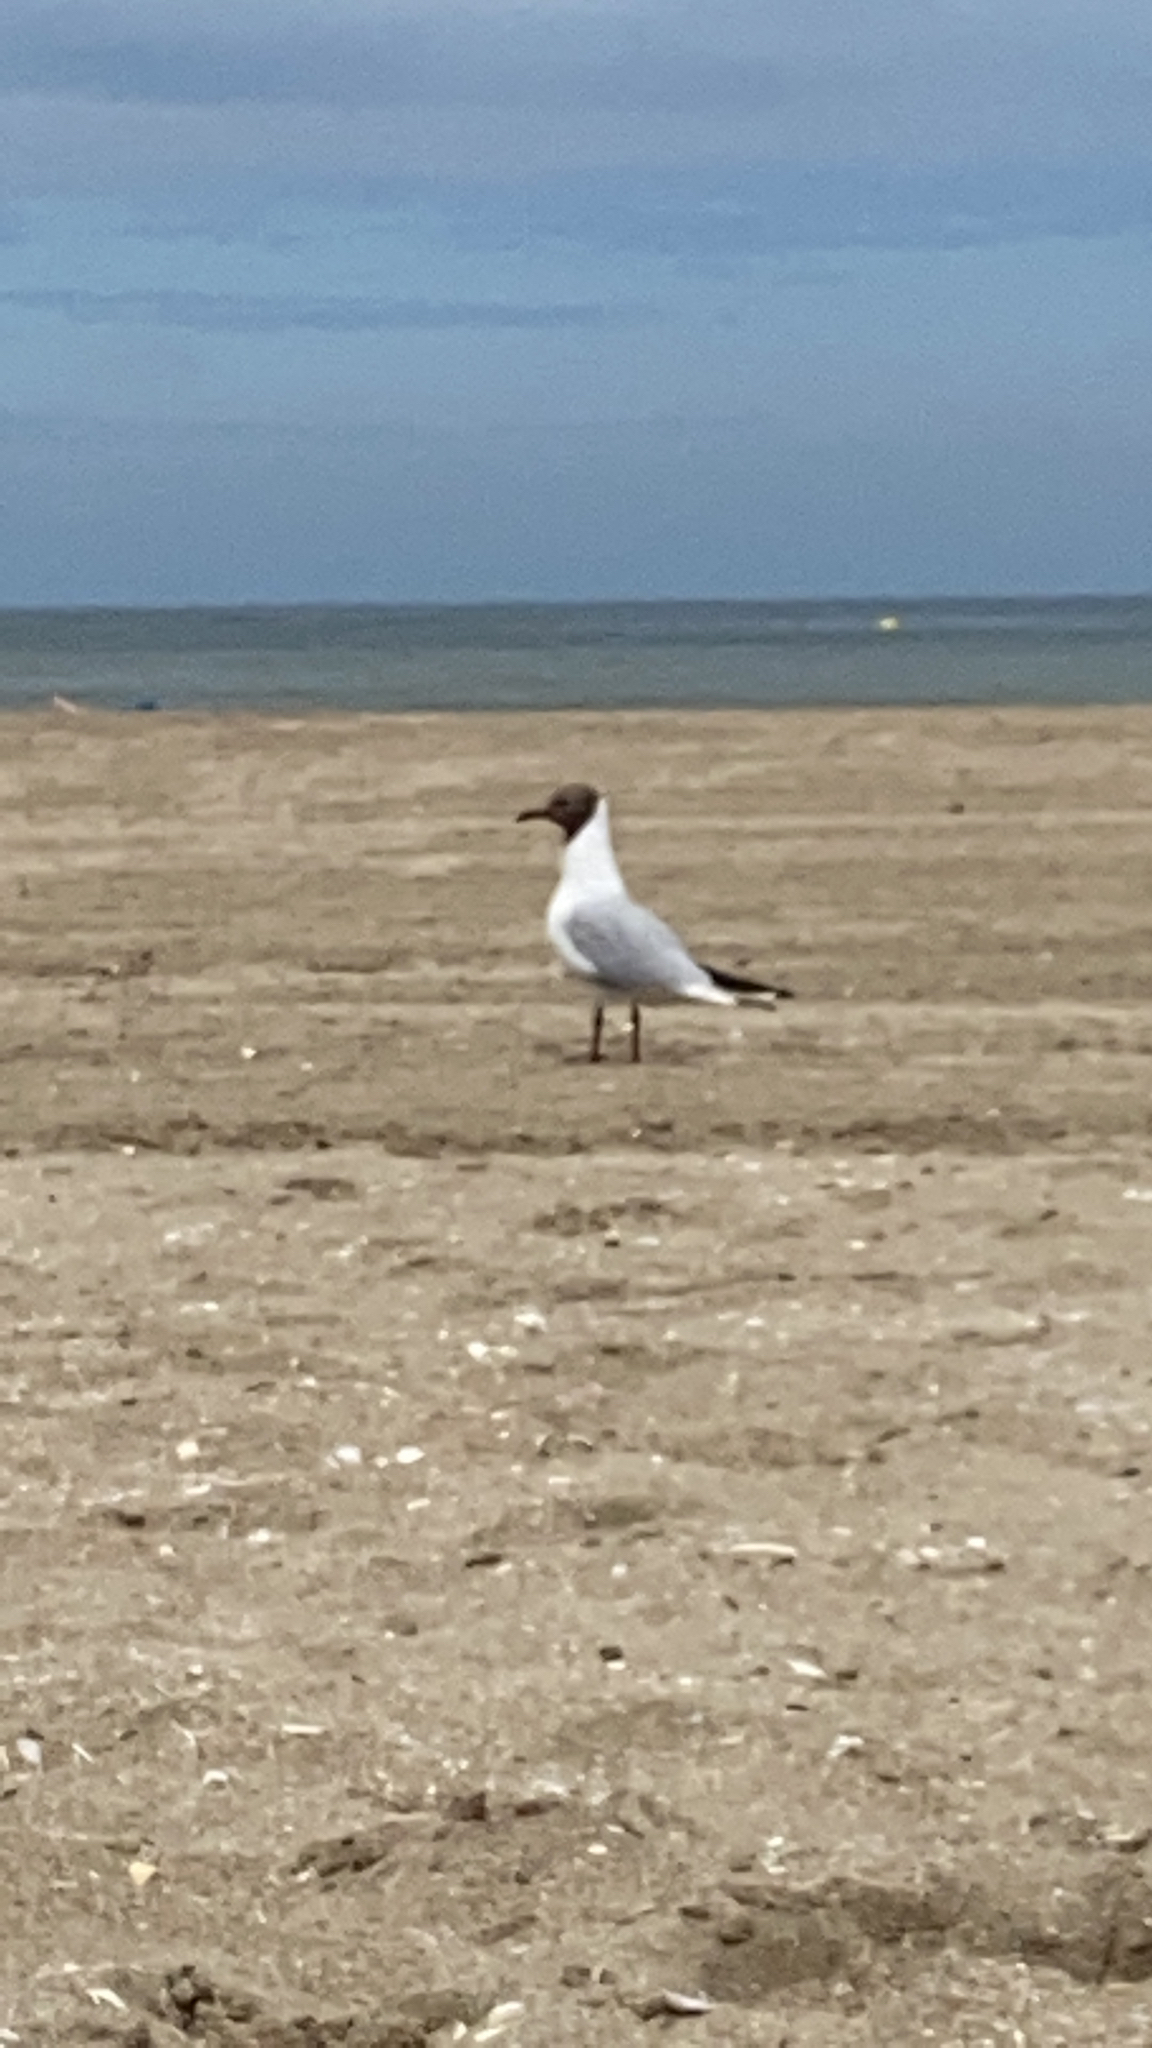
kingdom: Animalia
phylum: Chordata
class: Aves
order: Charadriiformes
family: Laridae
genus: Chroicocephalus
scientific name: Chroicocephalus ridibundus
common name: Black-headed gull
